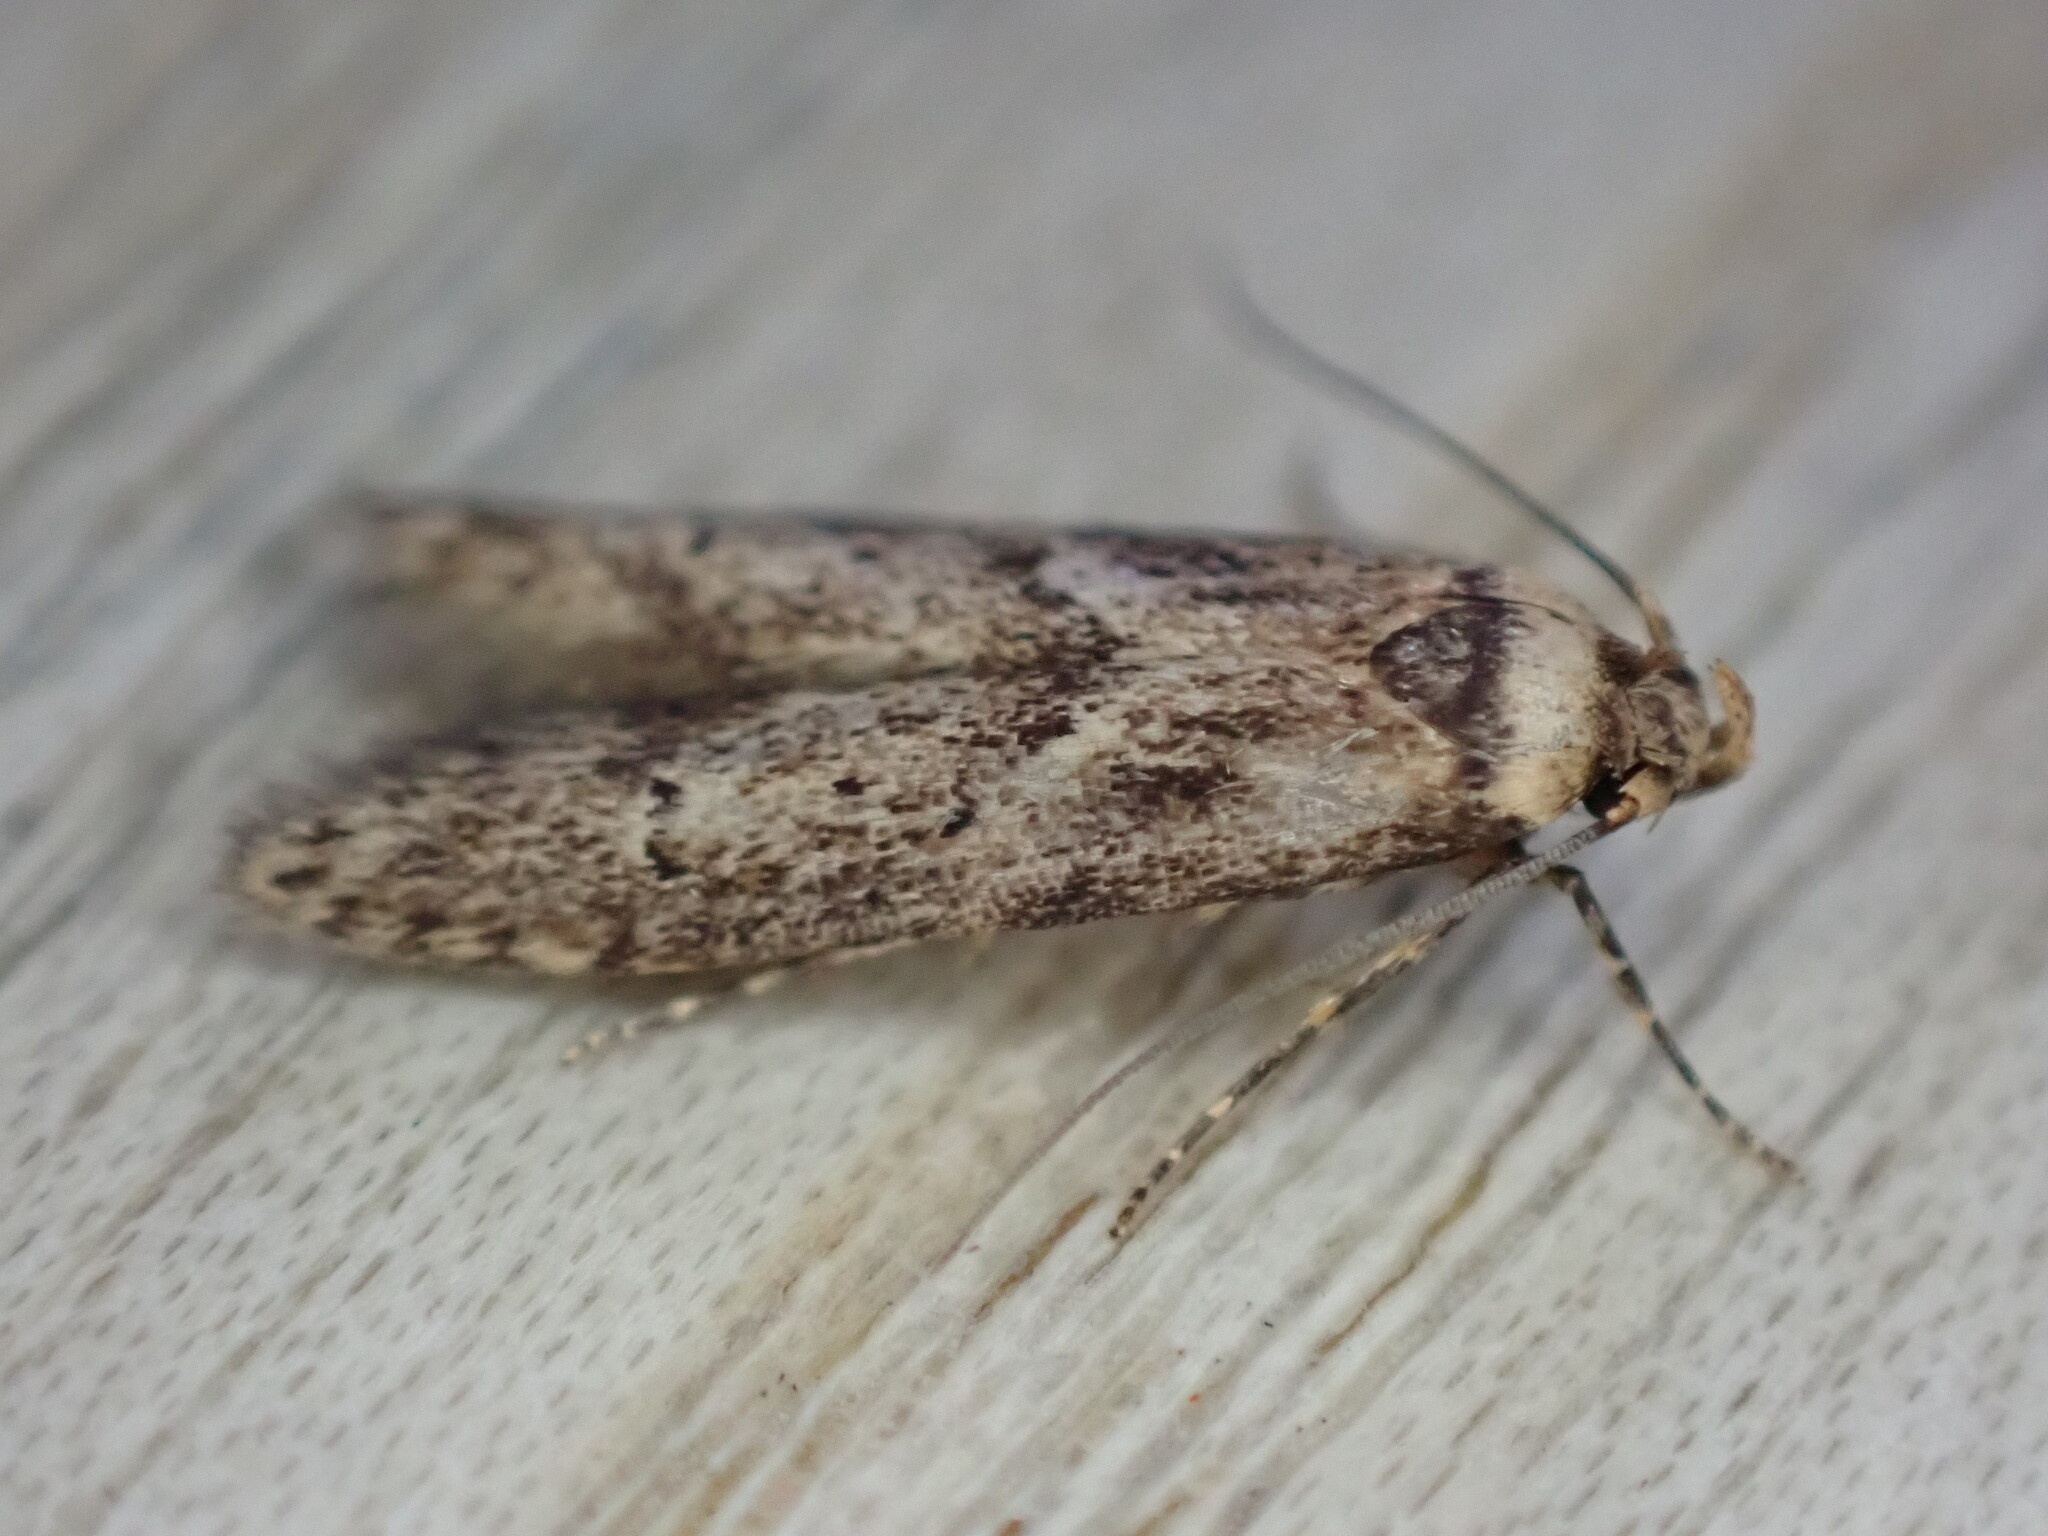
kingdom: Animalia
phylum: Arthropoda
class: Insecta
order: Lepidoptera
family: Blastobasidae
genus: Blastobasis
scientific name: Blastobasis adustella
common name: Dingy dowd
